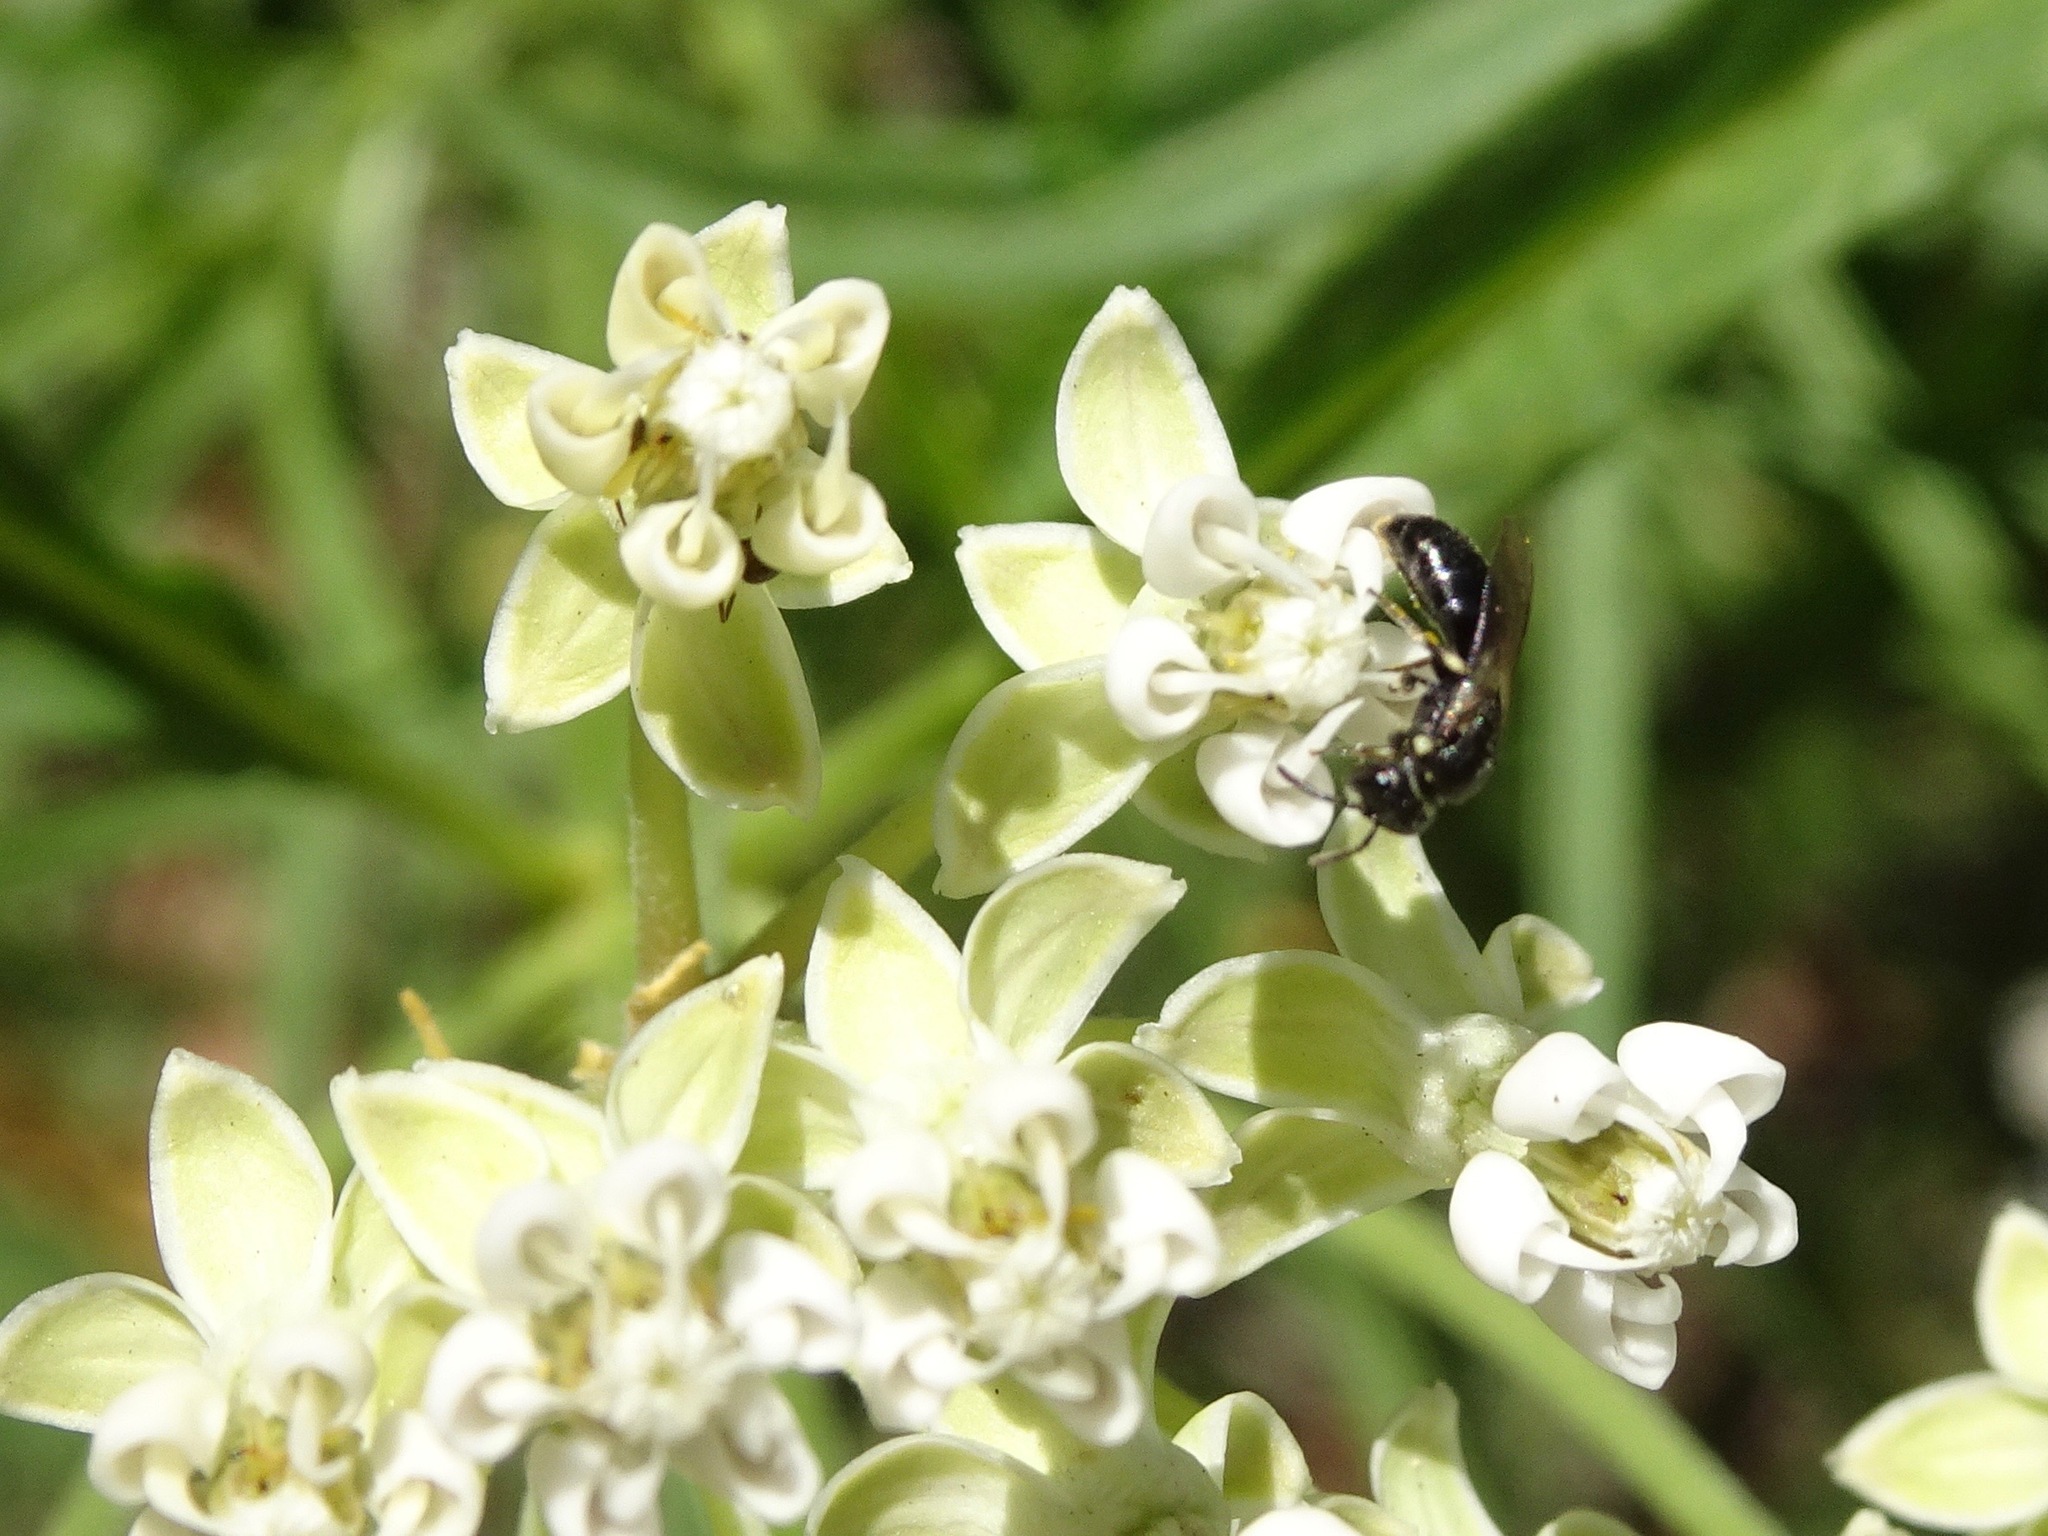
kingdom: Animalia
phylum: Arthropoda
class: Insecta
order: Hymenoptera
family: Colletidae
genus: Hylaeus
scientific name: Hylaeus
